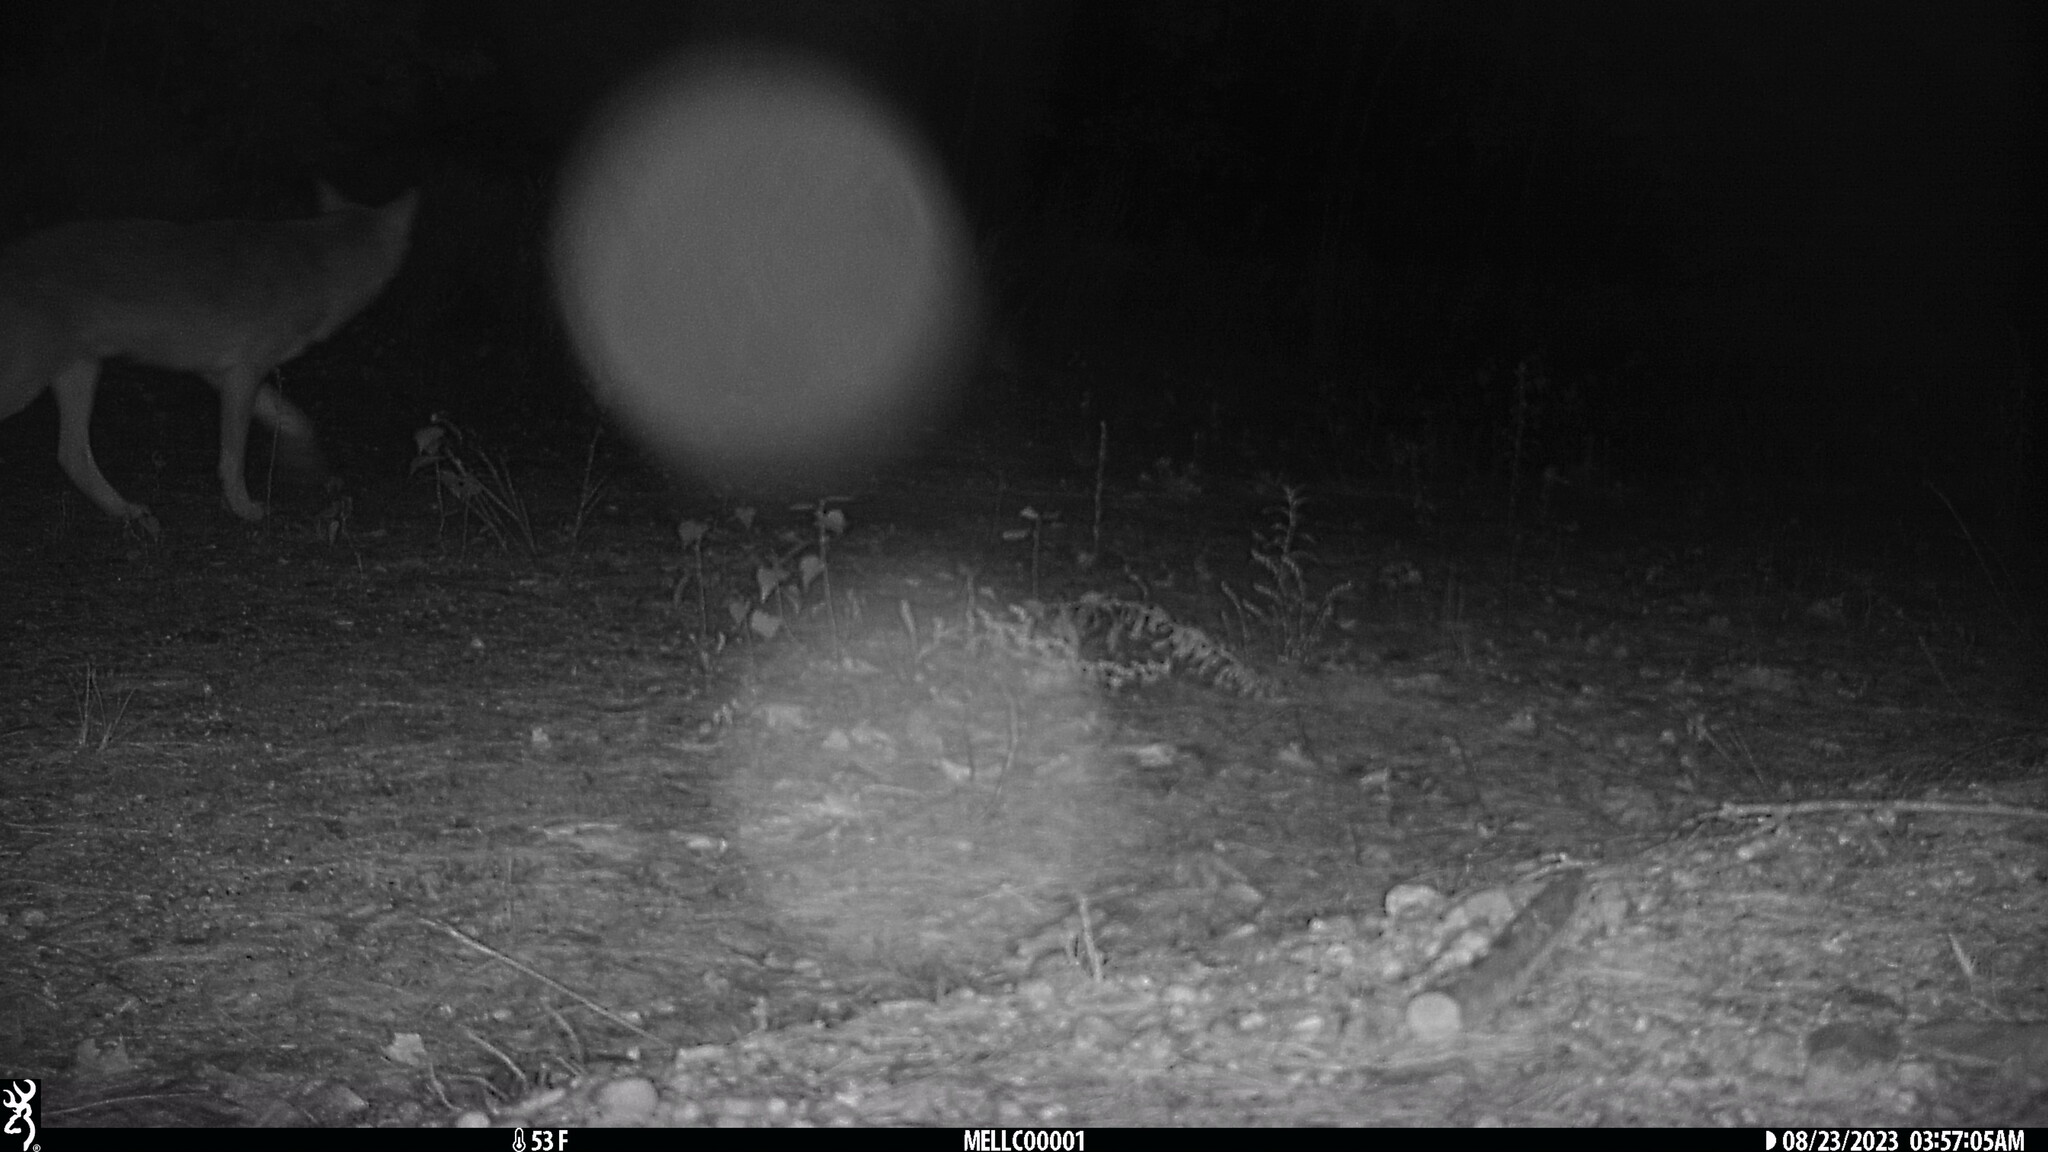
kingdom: Animalia
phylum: Chordata
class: Mammalia
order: Carnivora
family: Canidae
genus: Canis
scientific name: Canis latrans
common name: Coyote
